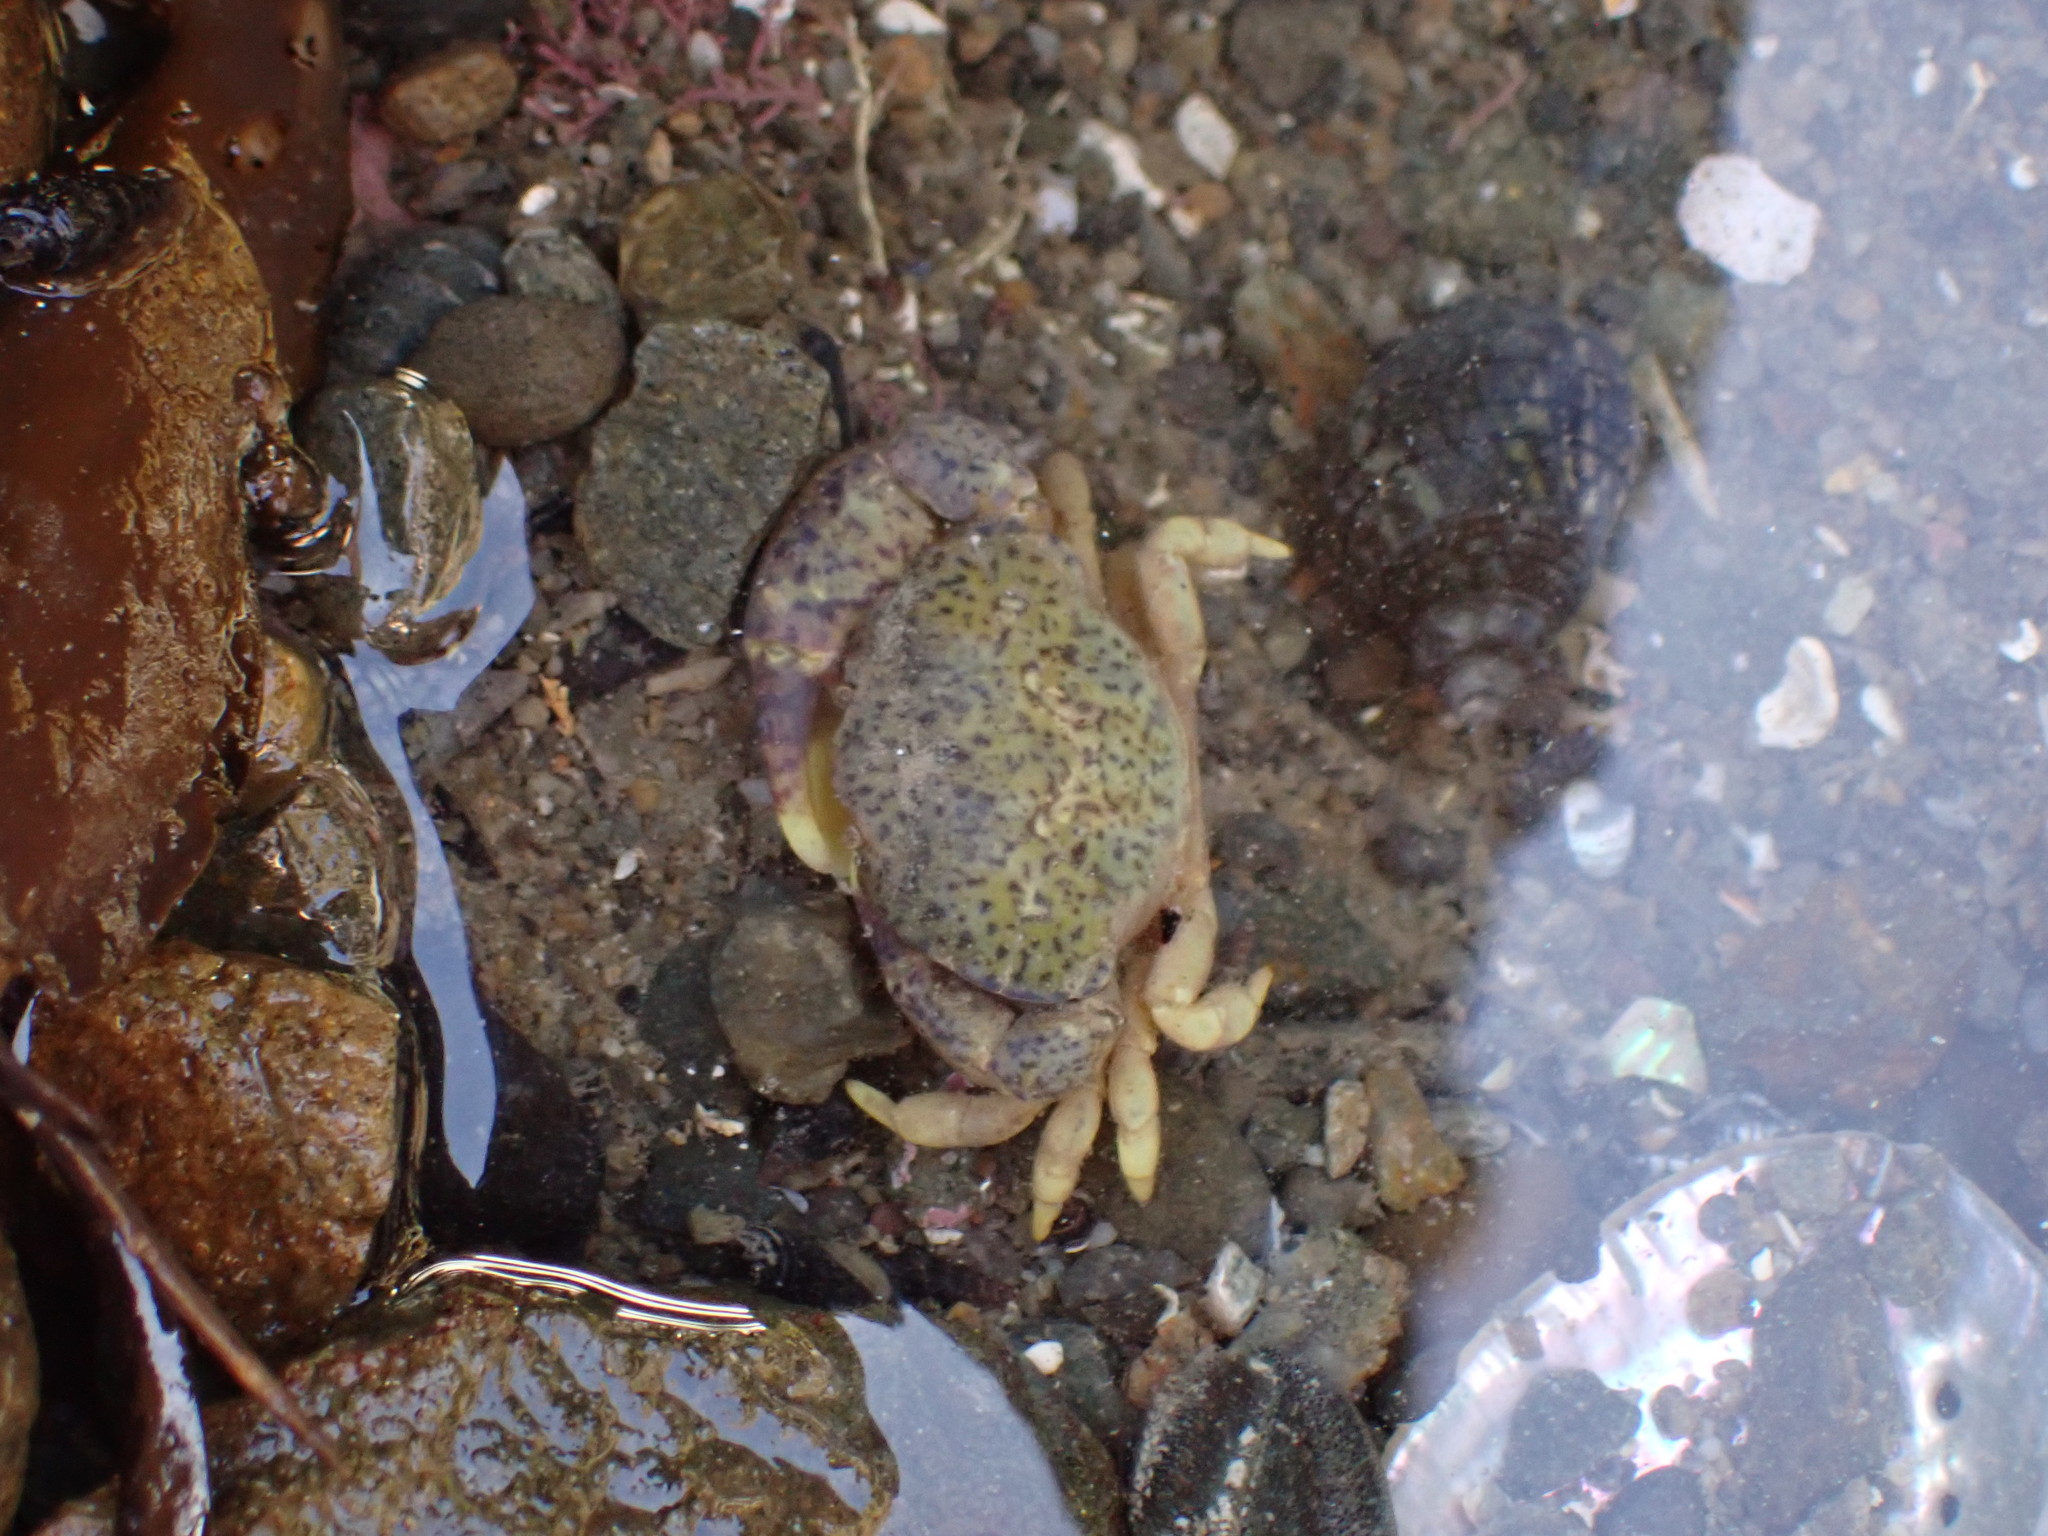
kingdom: Animalia
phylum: Arthropoda
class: Malacostraca
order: Decapoda
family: Heteroziidae
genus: Heterozius
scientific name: Heterozius rotundifrons
